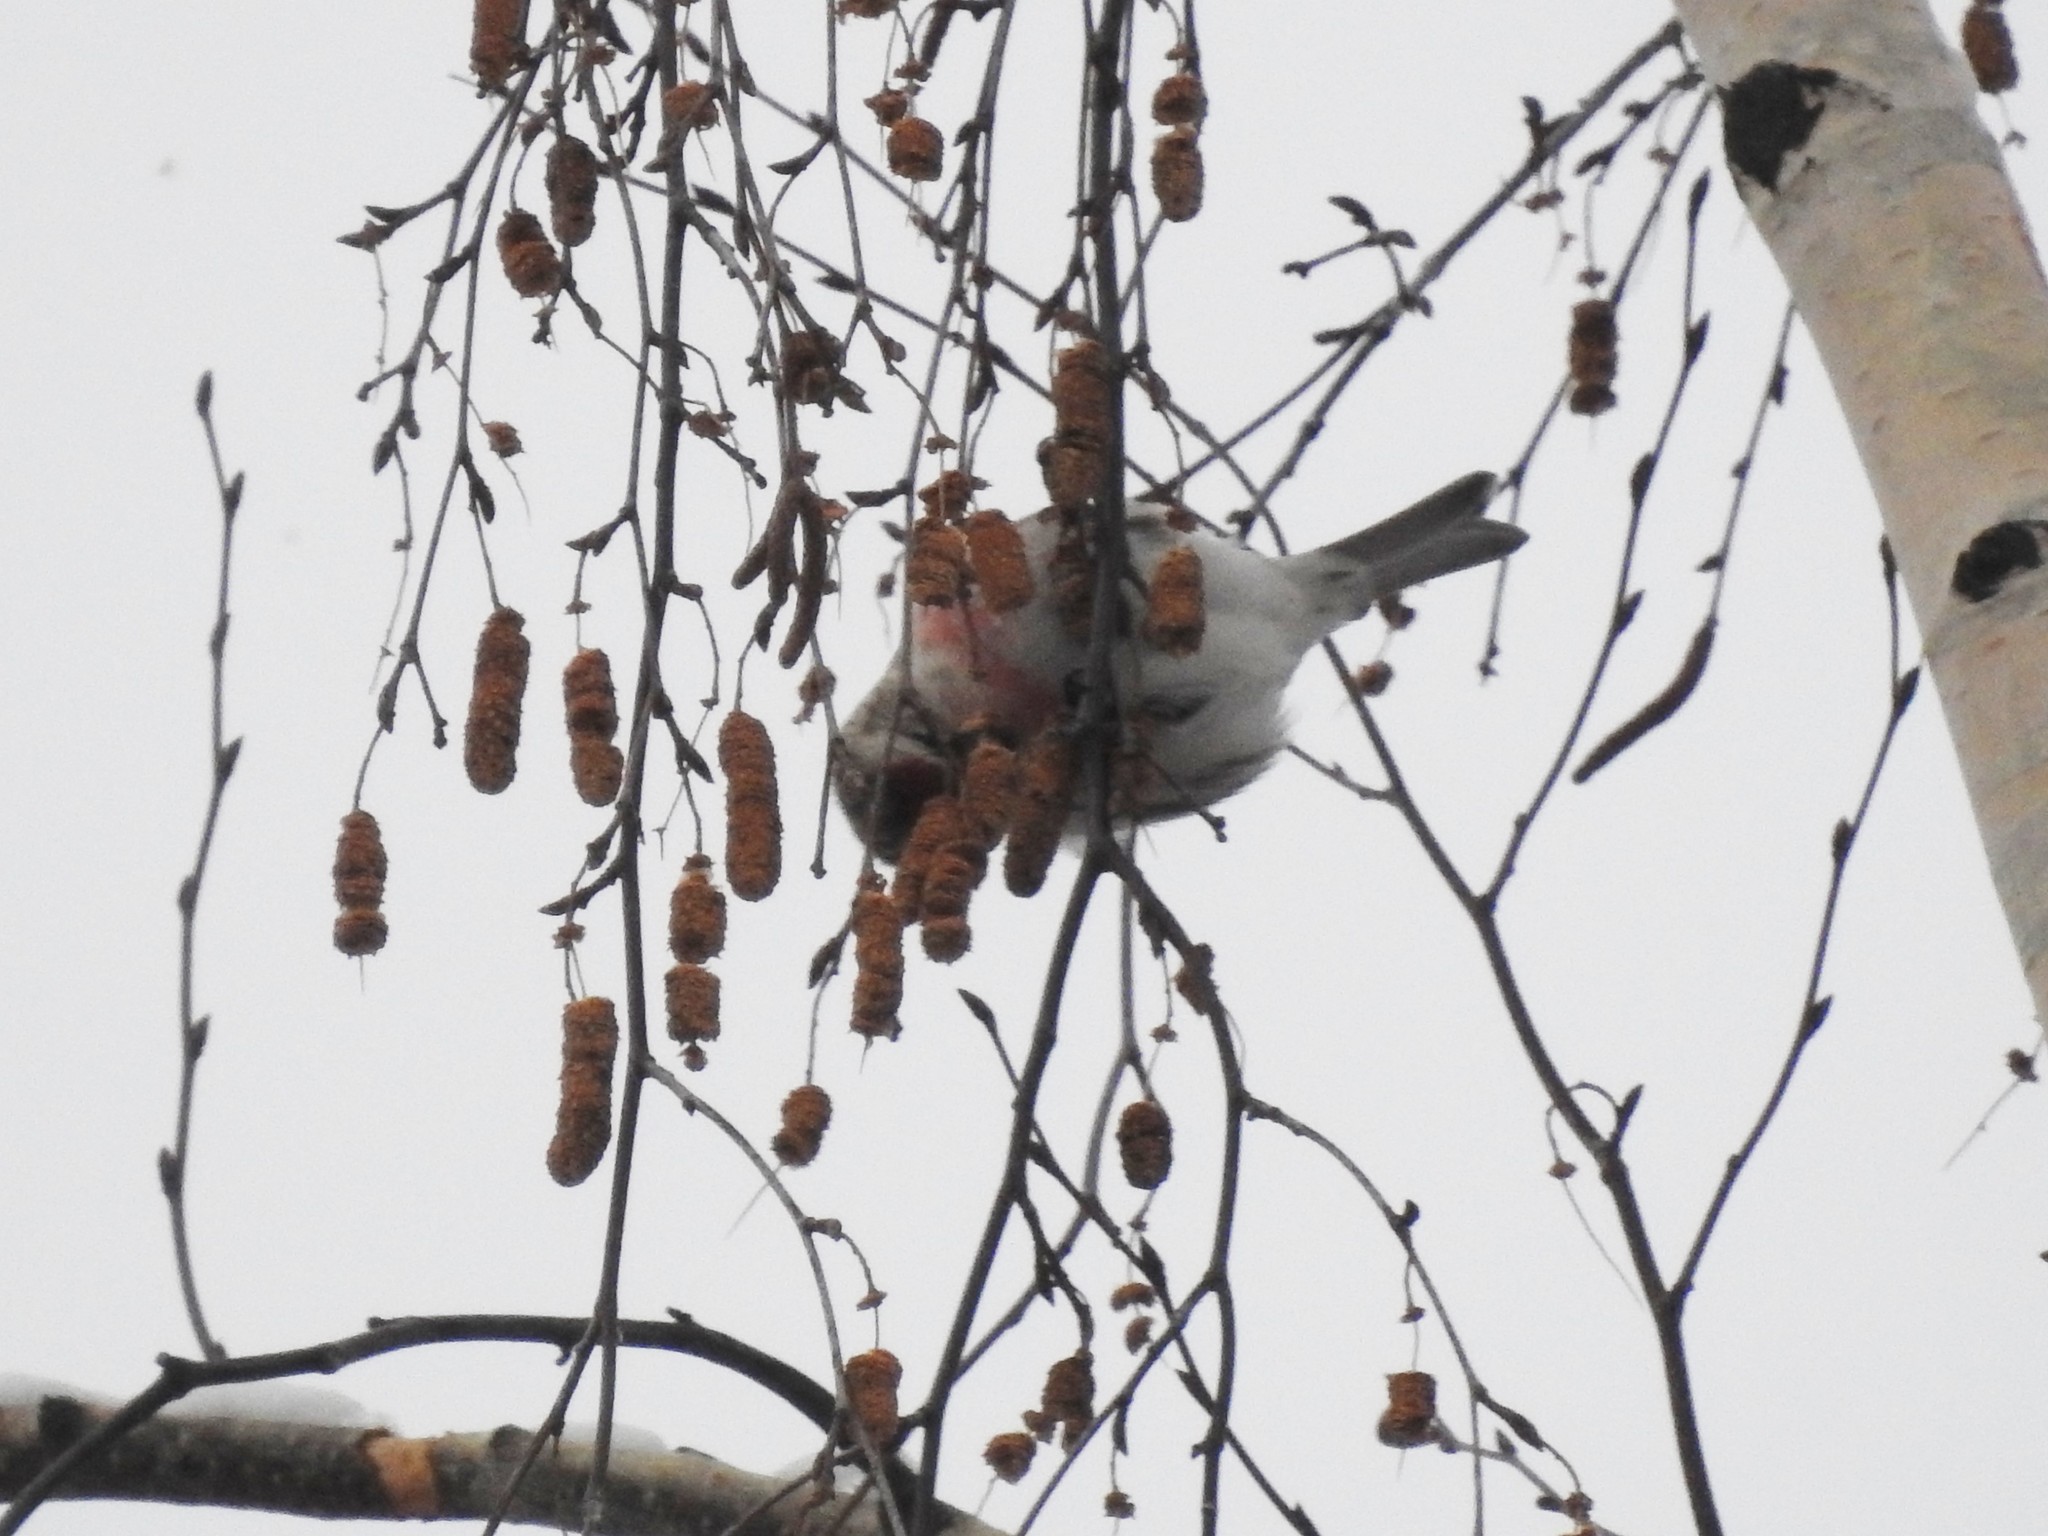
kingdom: Animalia
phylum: Chordata
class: Aves
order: Passeriformes
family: Fringillidae
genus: Acanthis
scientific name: Acanthis flammea
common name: Common redpoll
